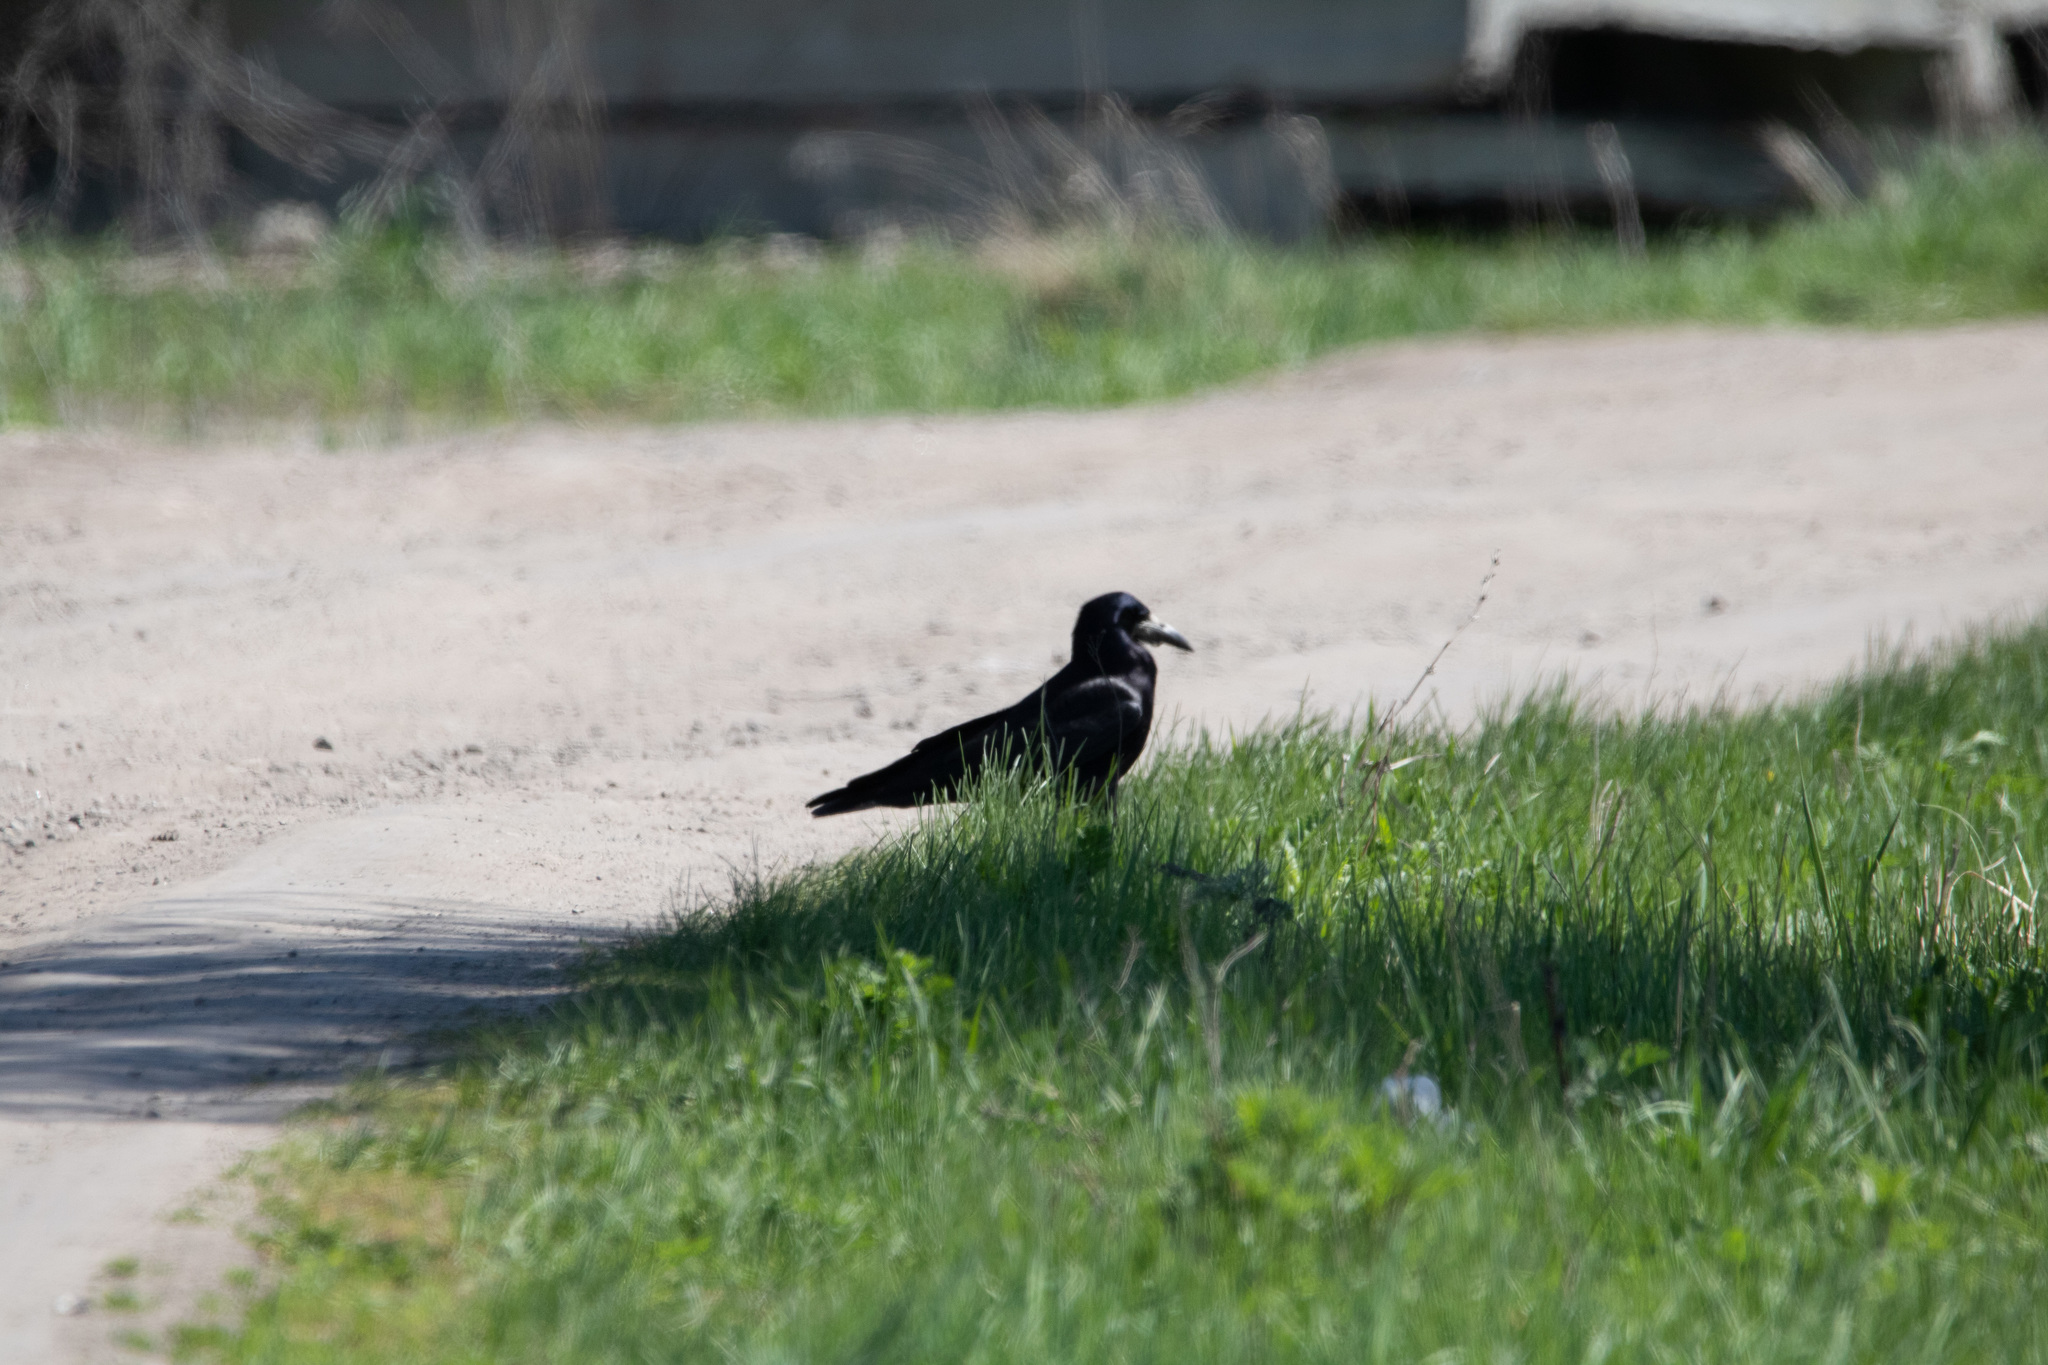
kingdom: Animalia
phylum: Chordata
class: Aves
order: Passeriformes
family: Corvidae
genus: Corvus
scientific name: Corvus frugilegus
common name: Rook
